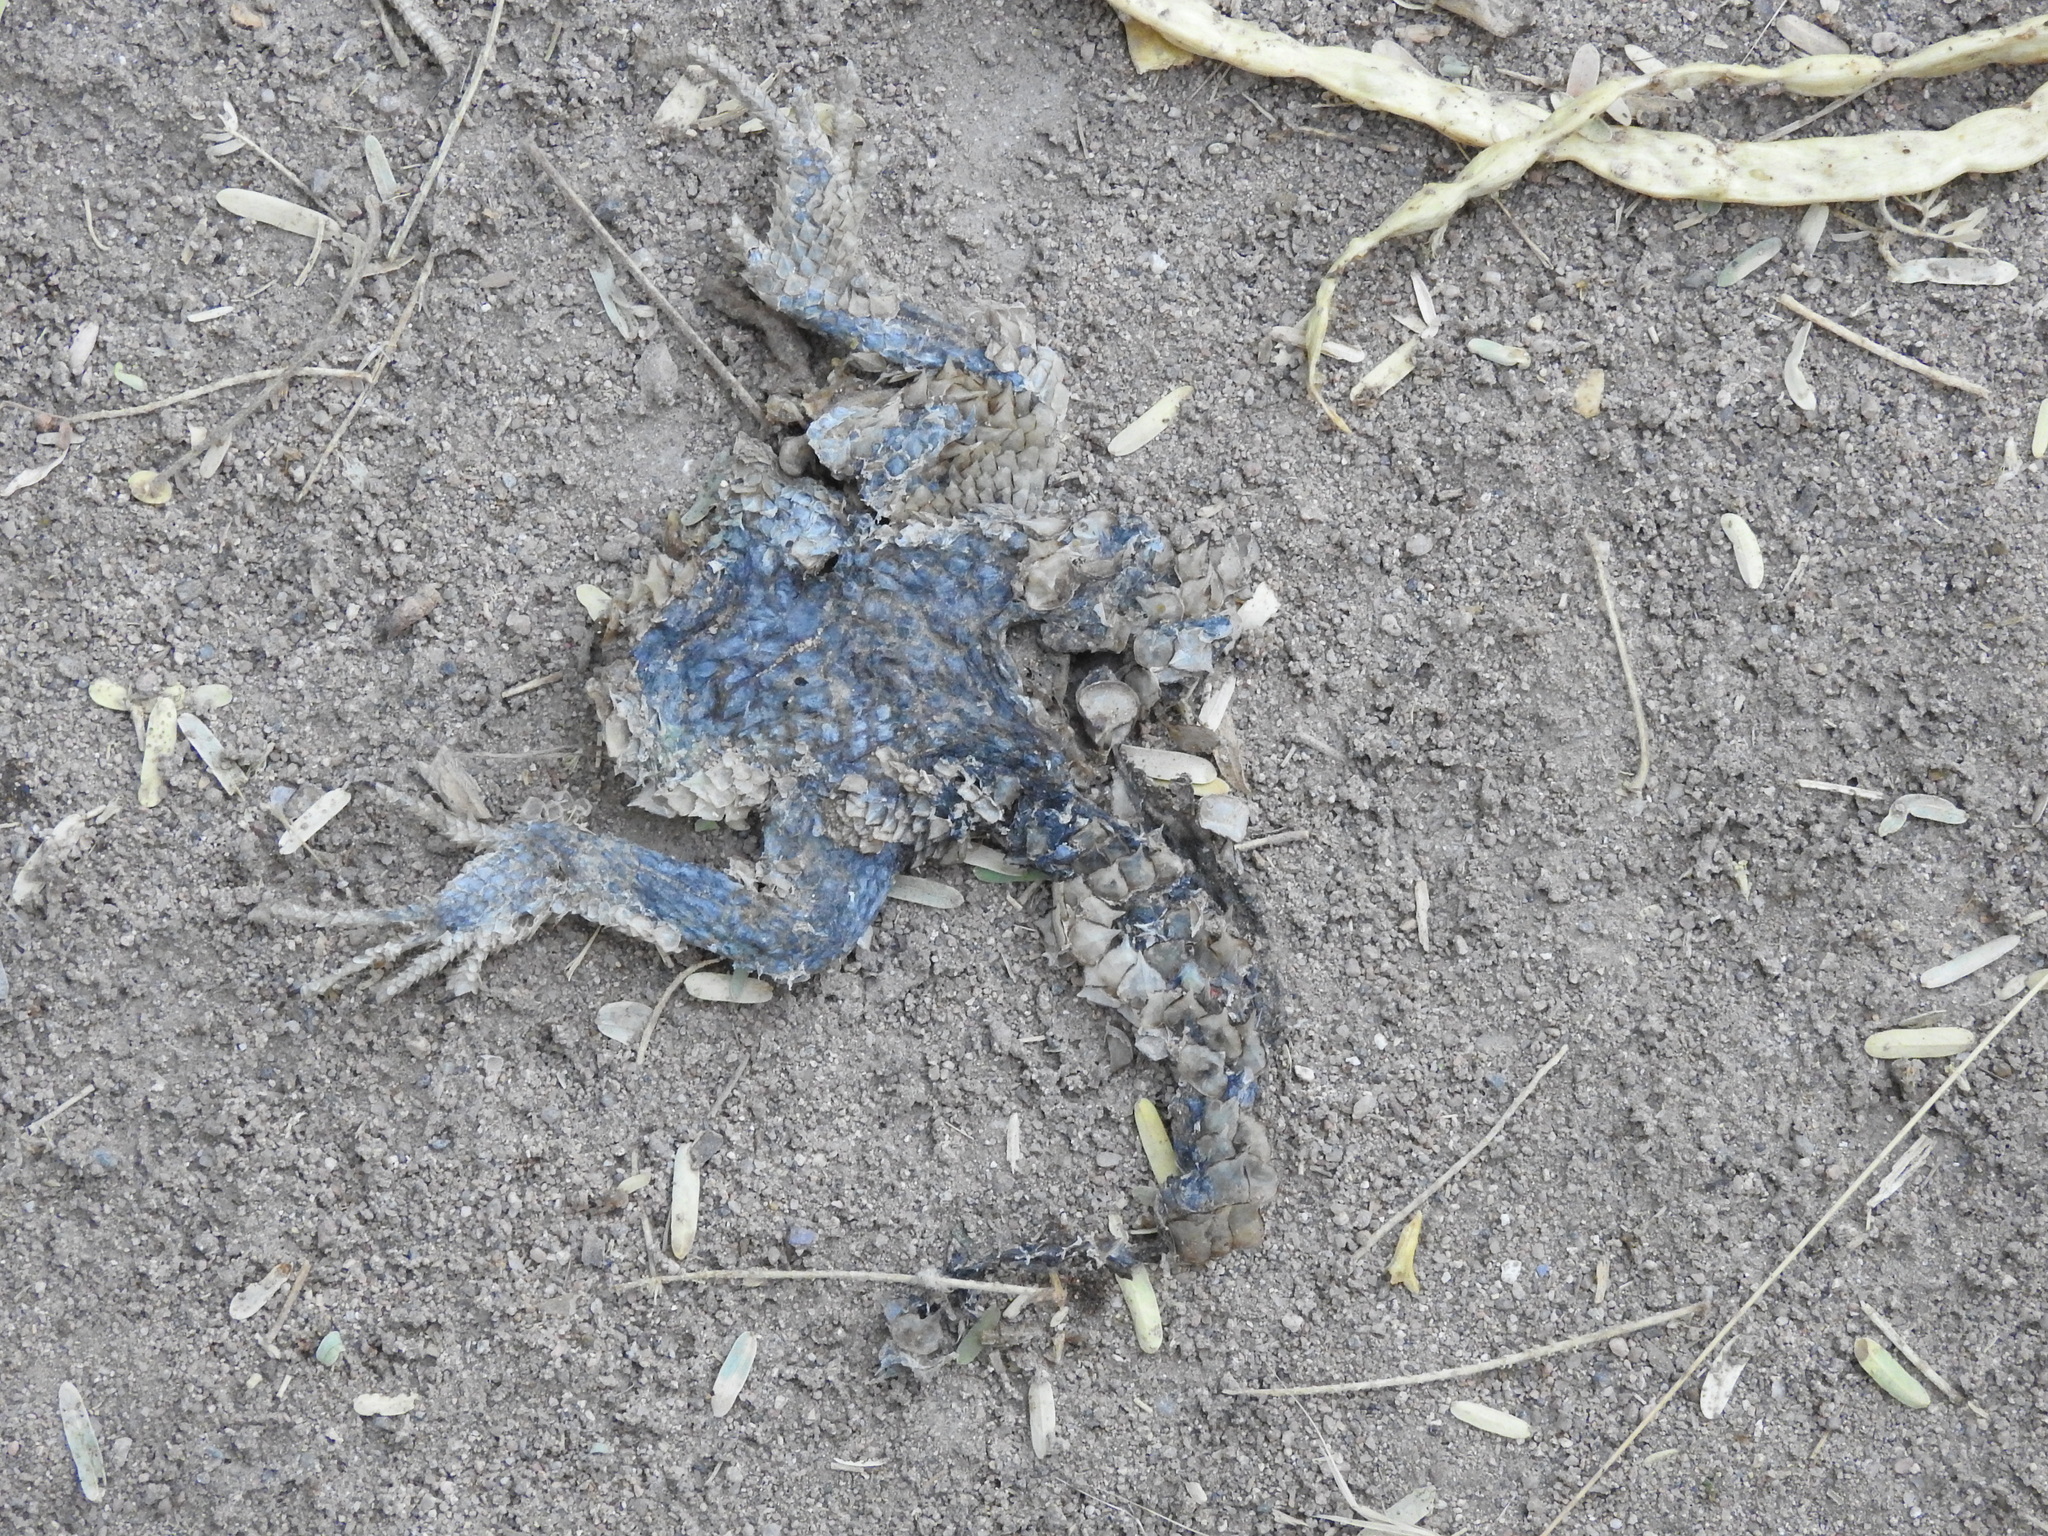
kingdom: Animalia
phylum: Chordata
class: Squamata
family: Phrynosomatidae
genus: Sceloporus
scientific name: Sceloporus
